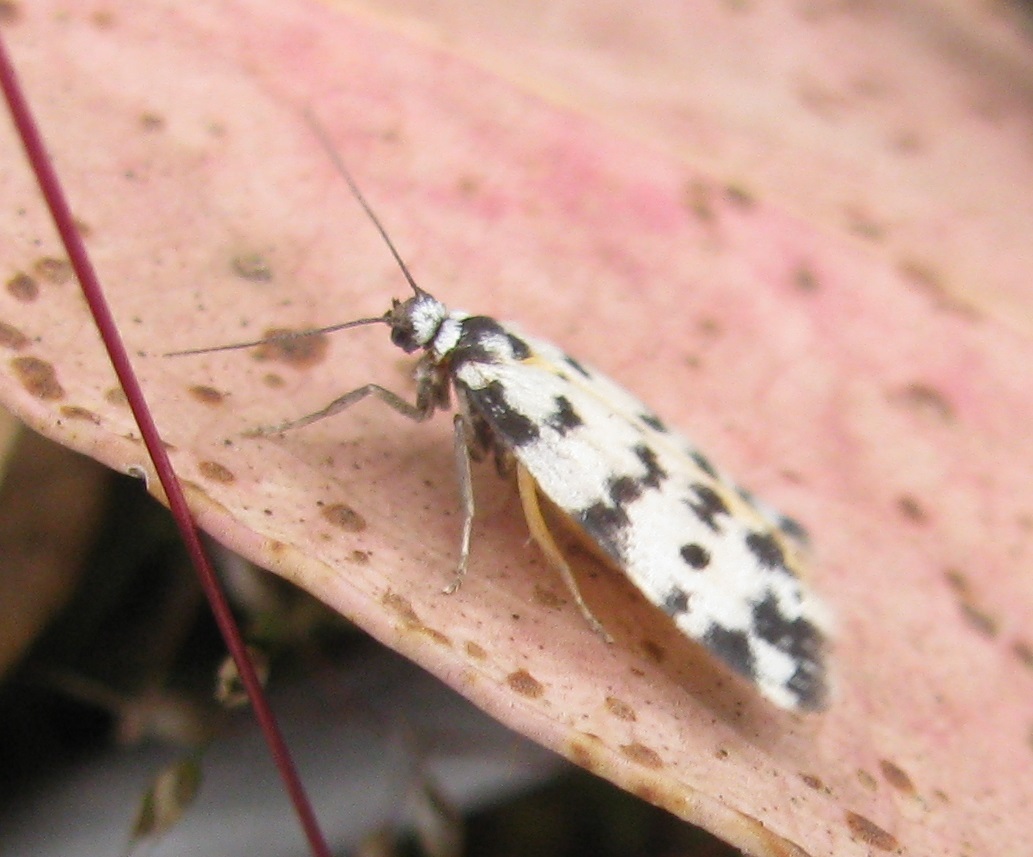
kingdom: Animalia
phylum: Arthropoda
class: Insecta
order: Lepidoptera
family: Erebidae
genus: Thallarcha
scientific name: Thallarcha jocularis
